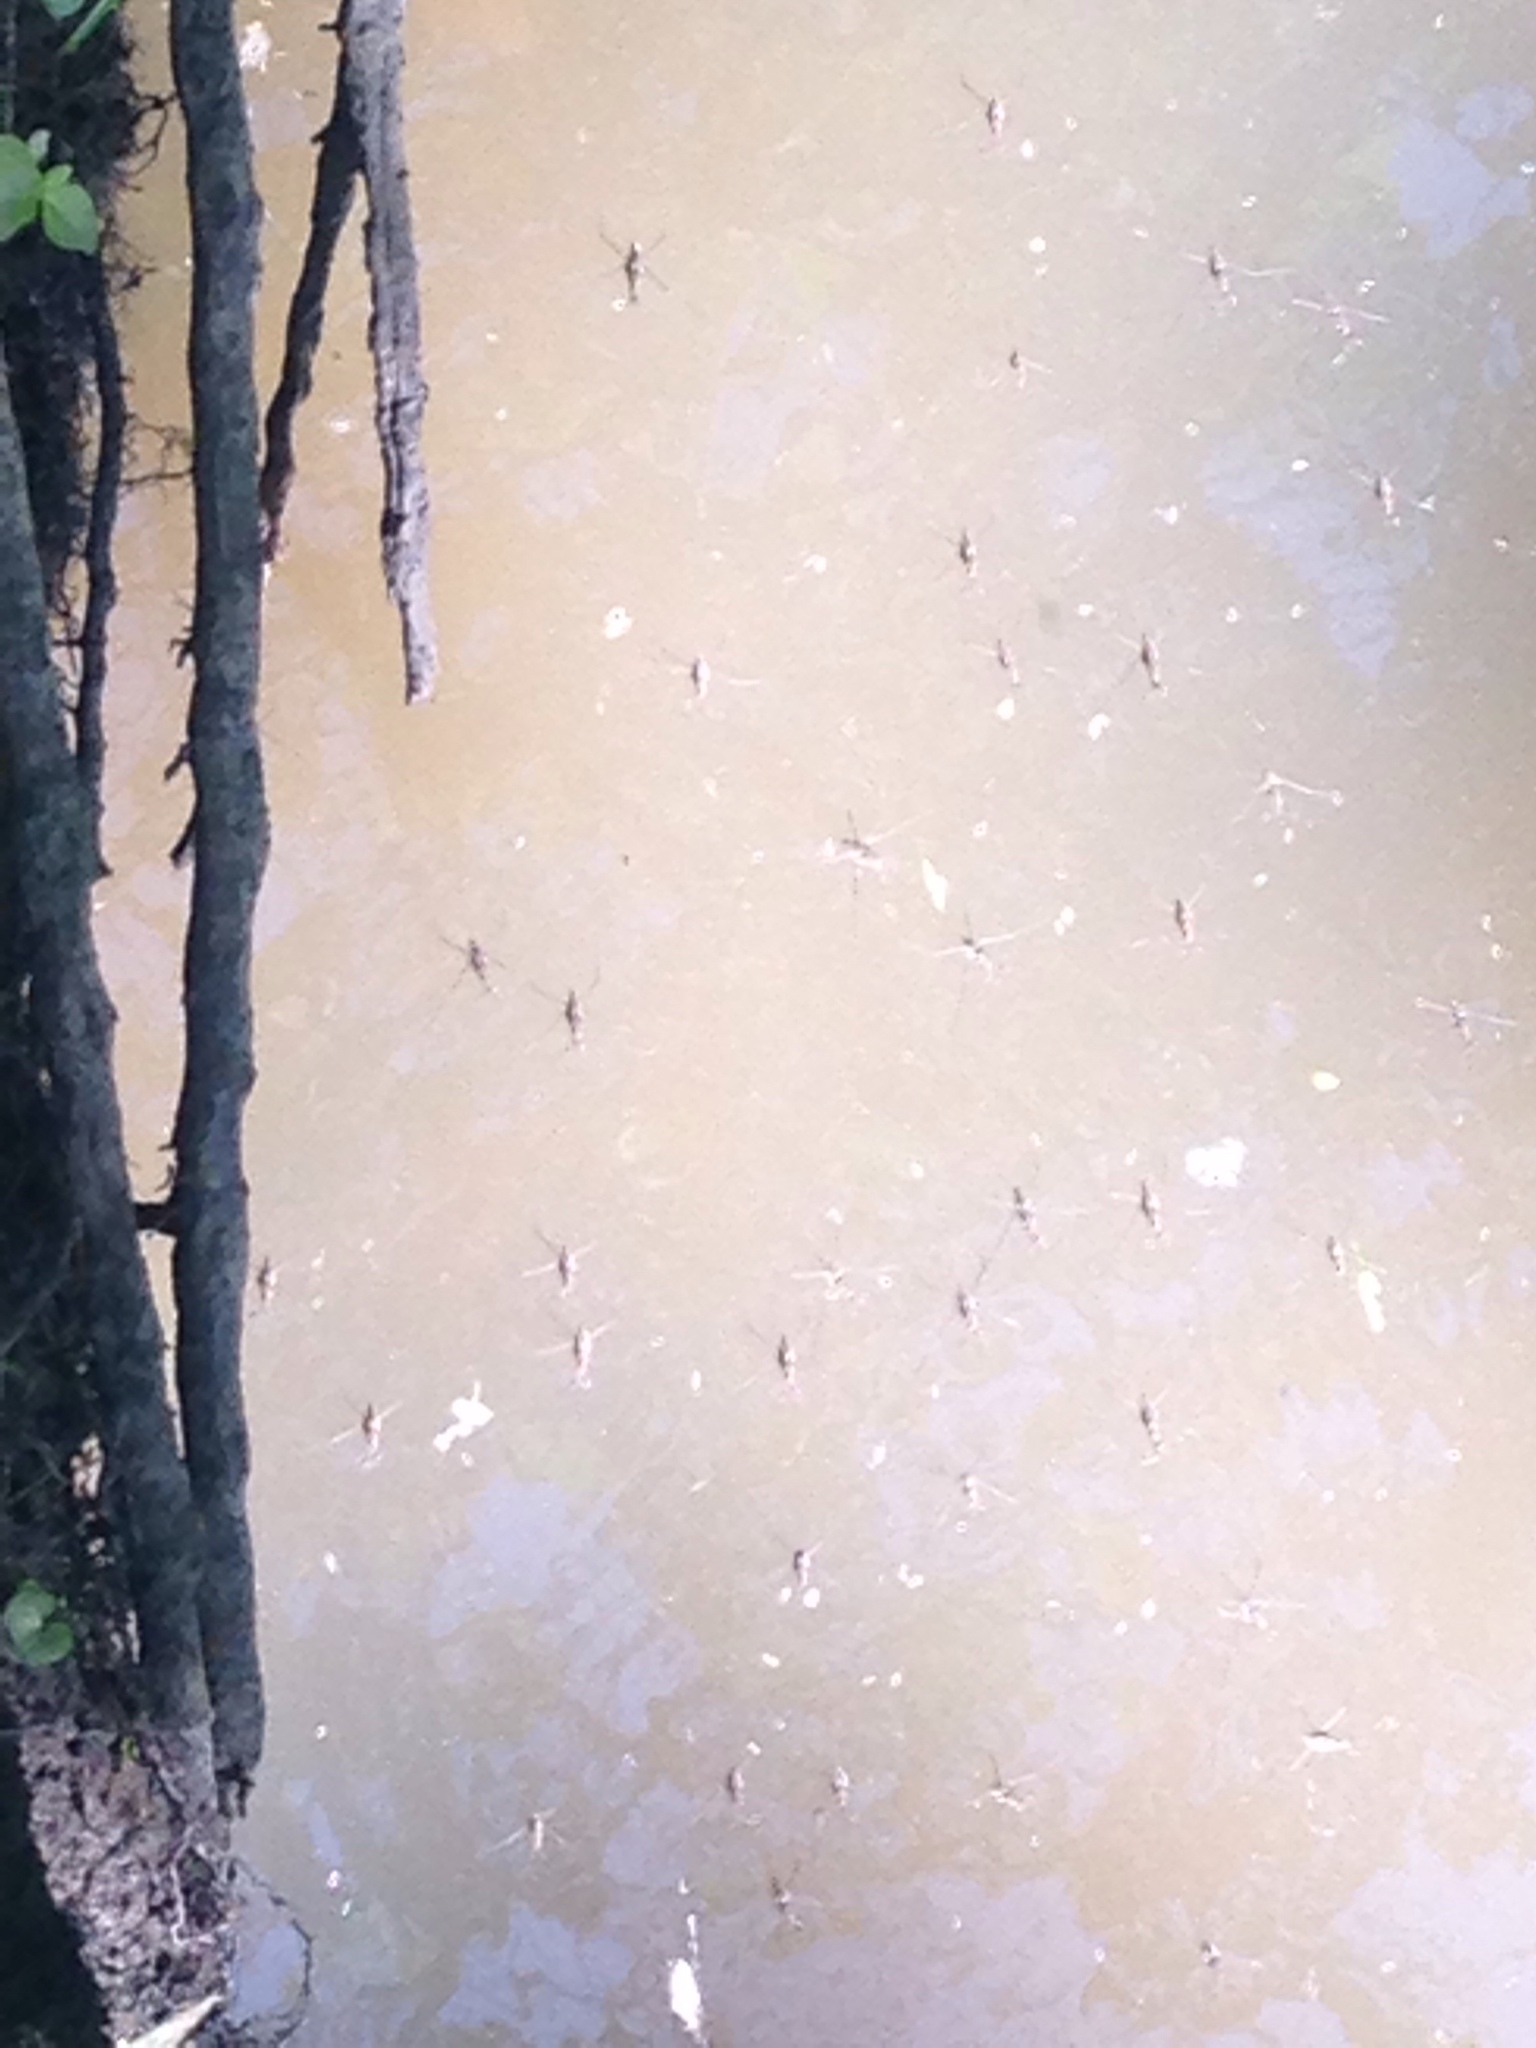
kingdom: Animalia
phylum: Arthropoda
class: Insecta
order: Hemiptera
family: Gerridae
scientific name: Gerridae
